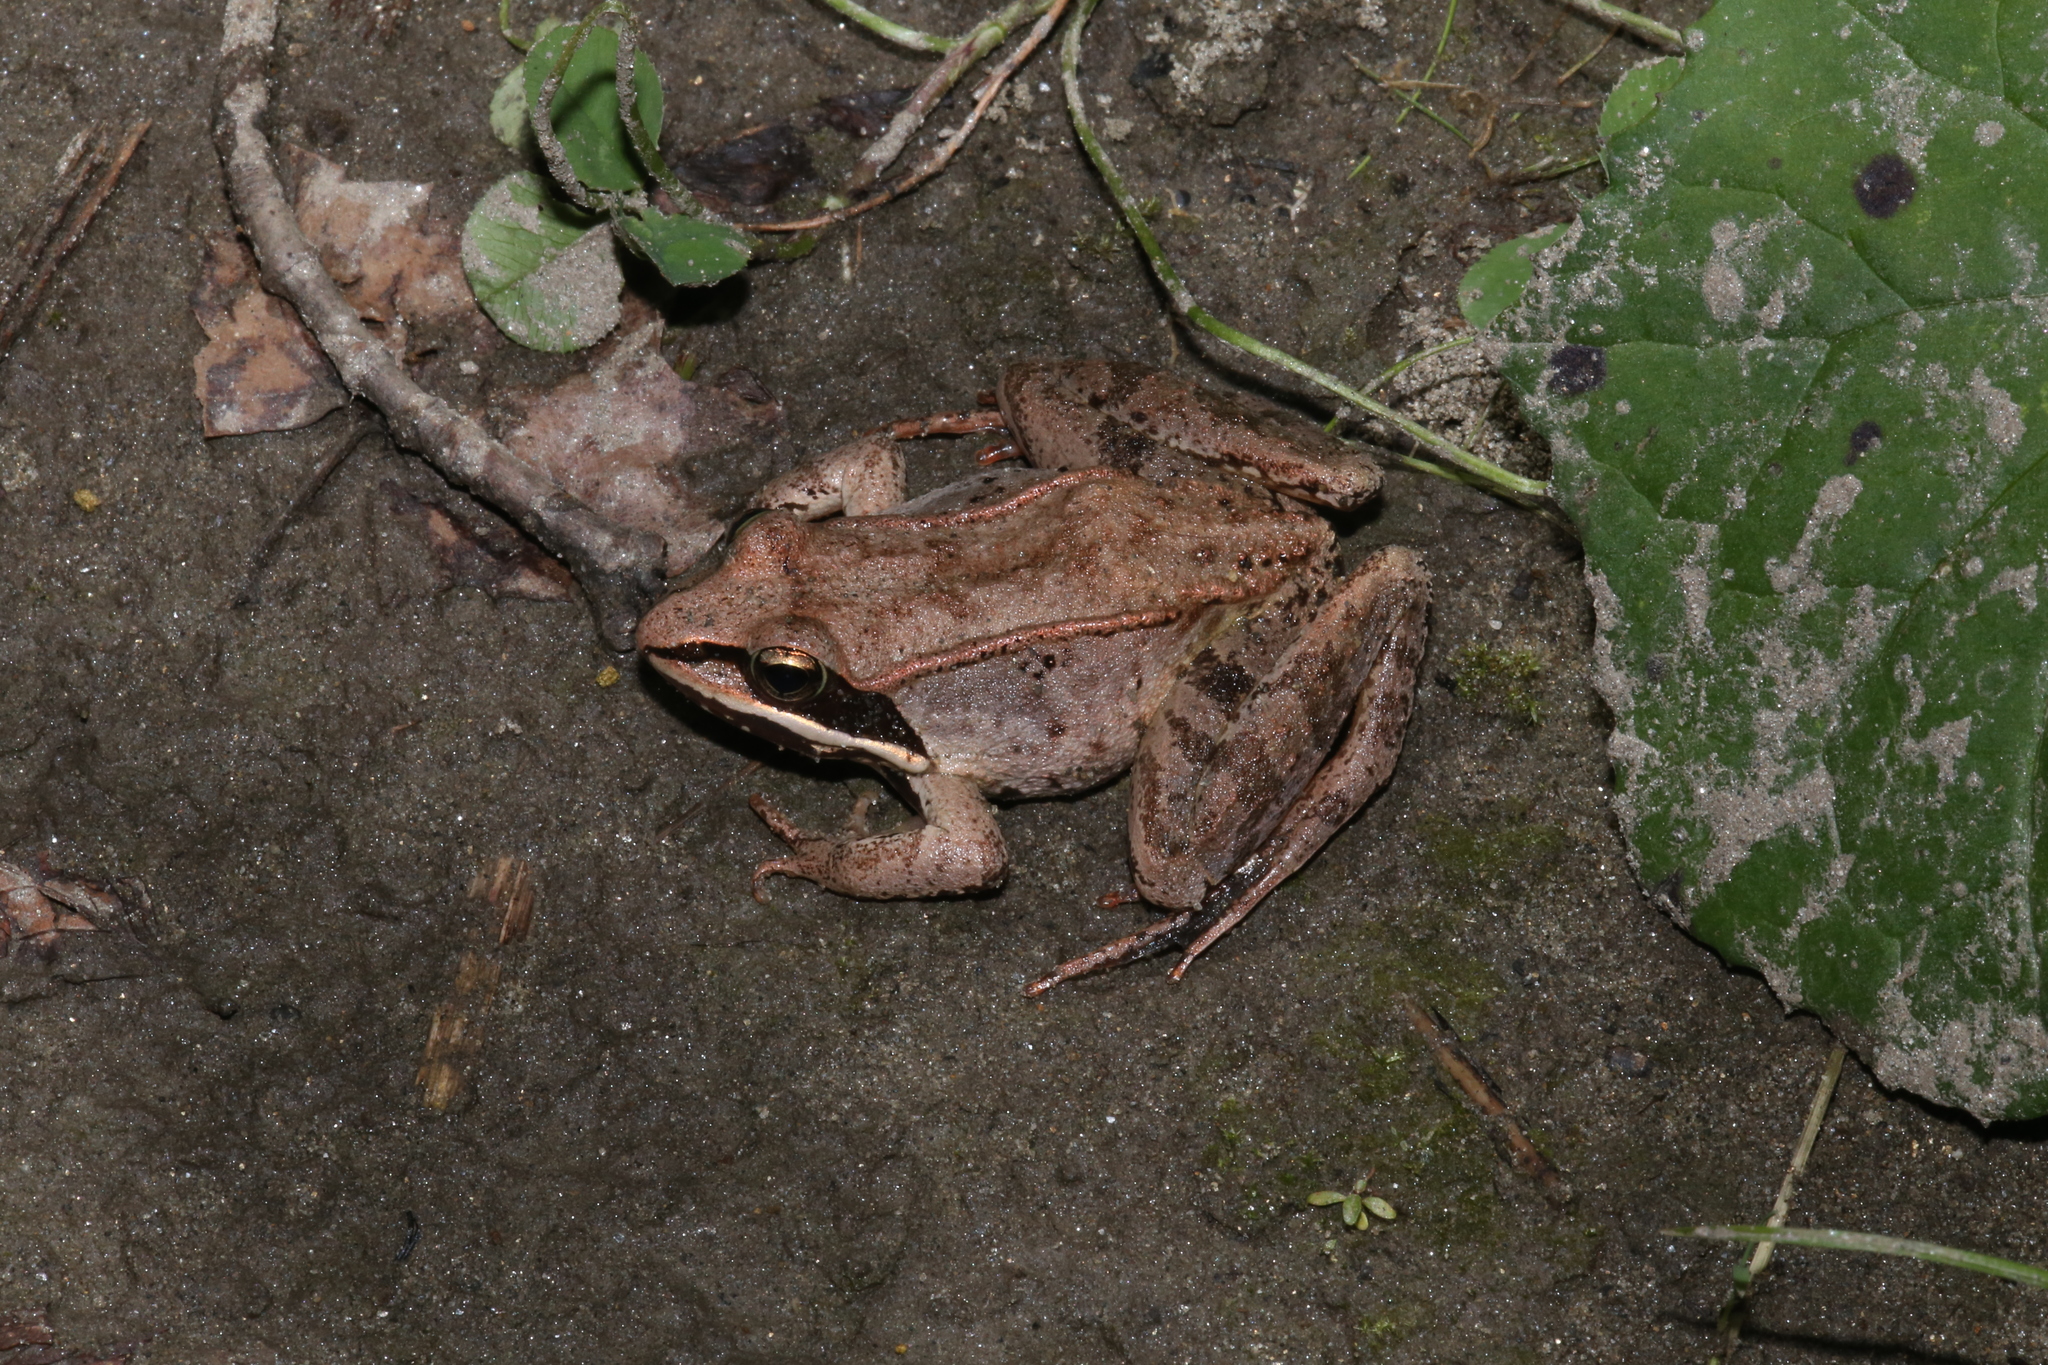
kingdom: Animalia
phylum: Chordata
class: Amphibia
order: Anura
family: Ranidae
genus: Lithobates
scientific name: Lithobates sylvaticus
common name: Wood frog
